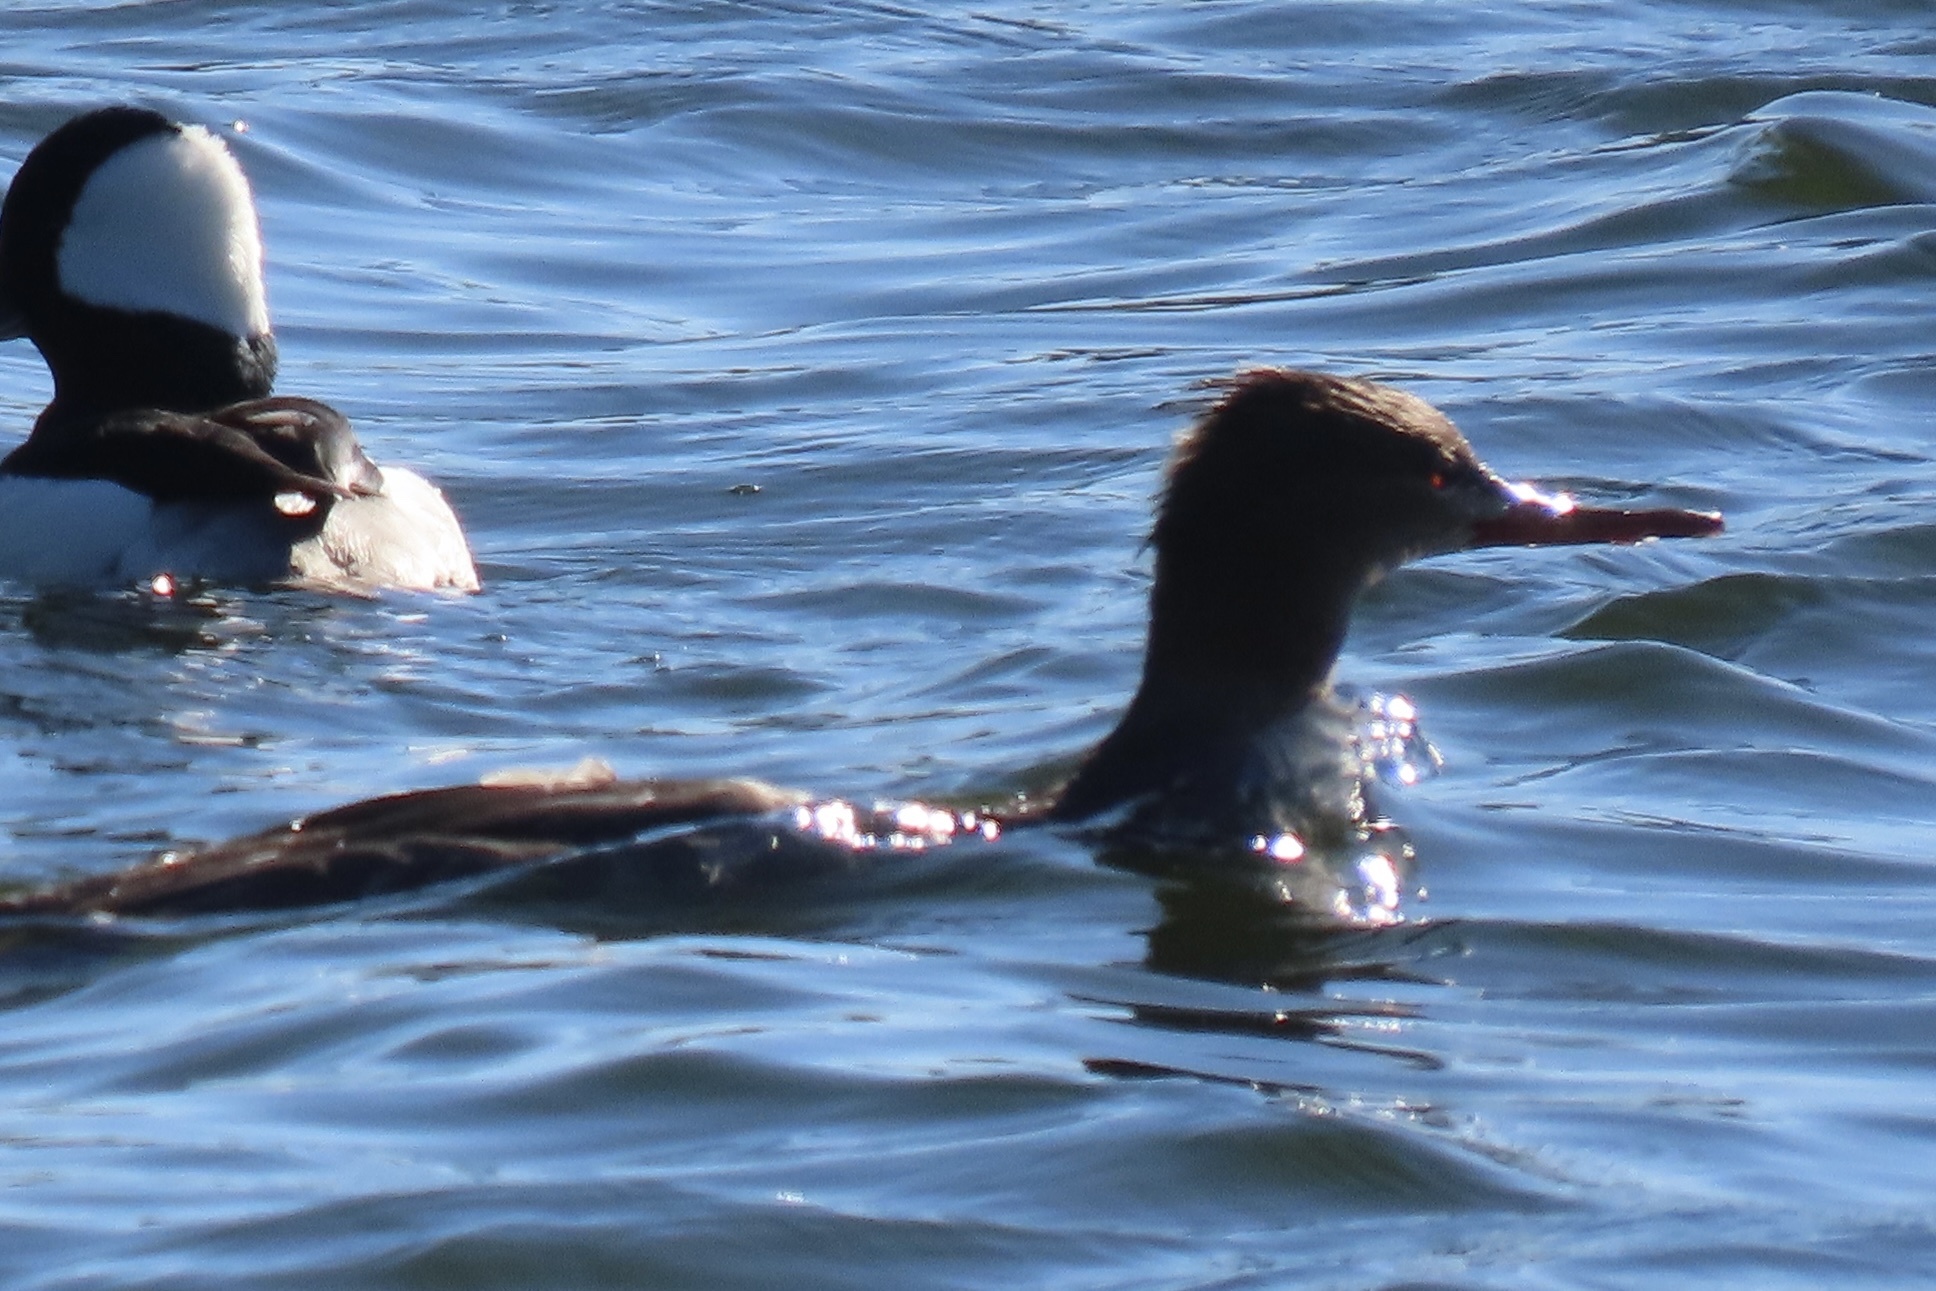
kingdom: Animalia
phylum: Chordata
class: Aves
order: Anseriformes
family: Anatidae
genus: Mergus
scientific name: Mergus serrator
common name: Red-breasted merganser
